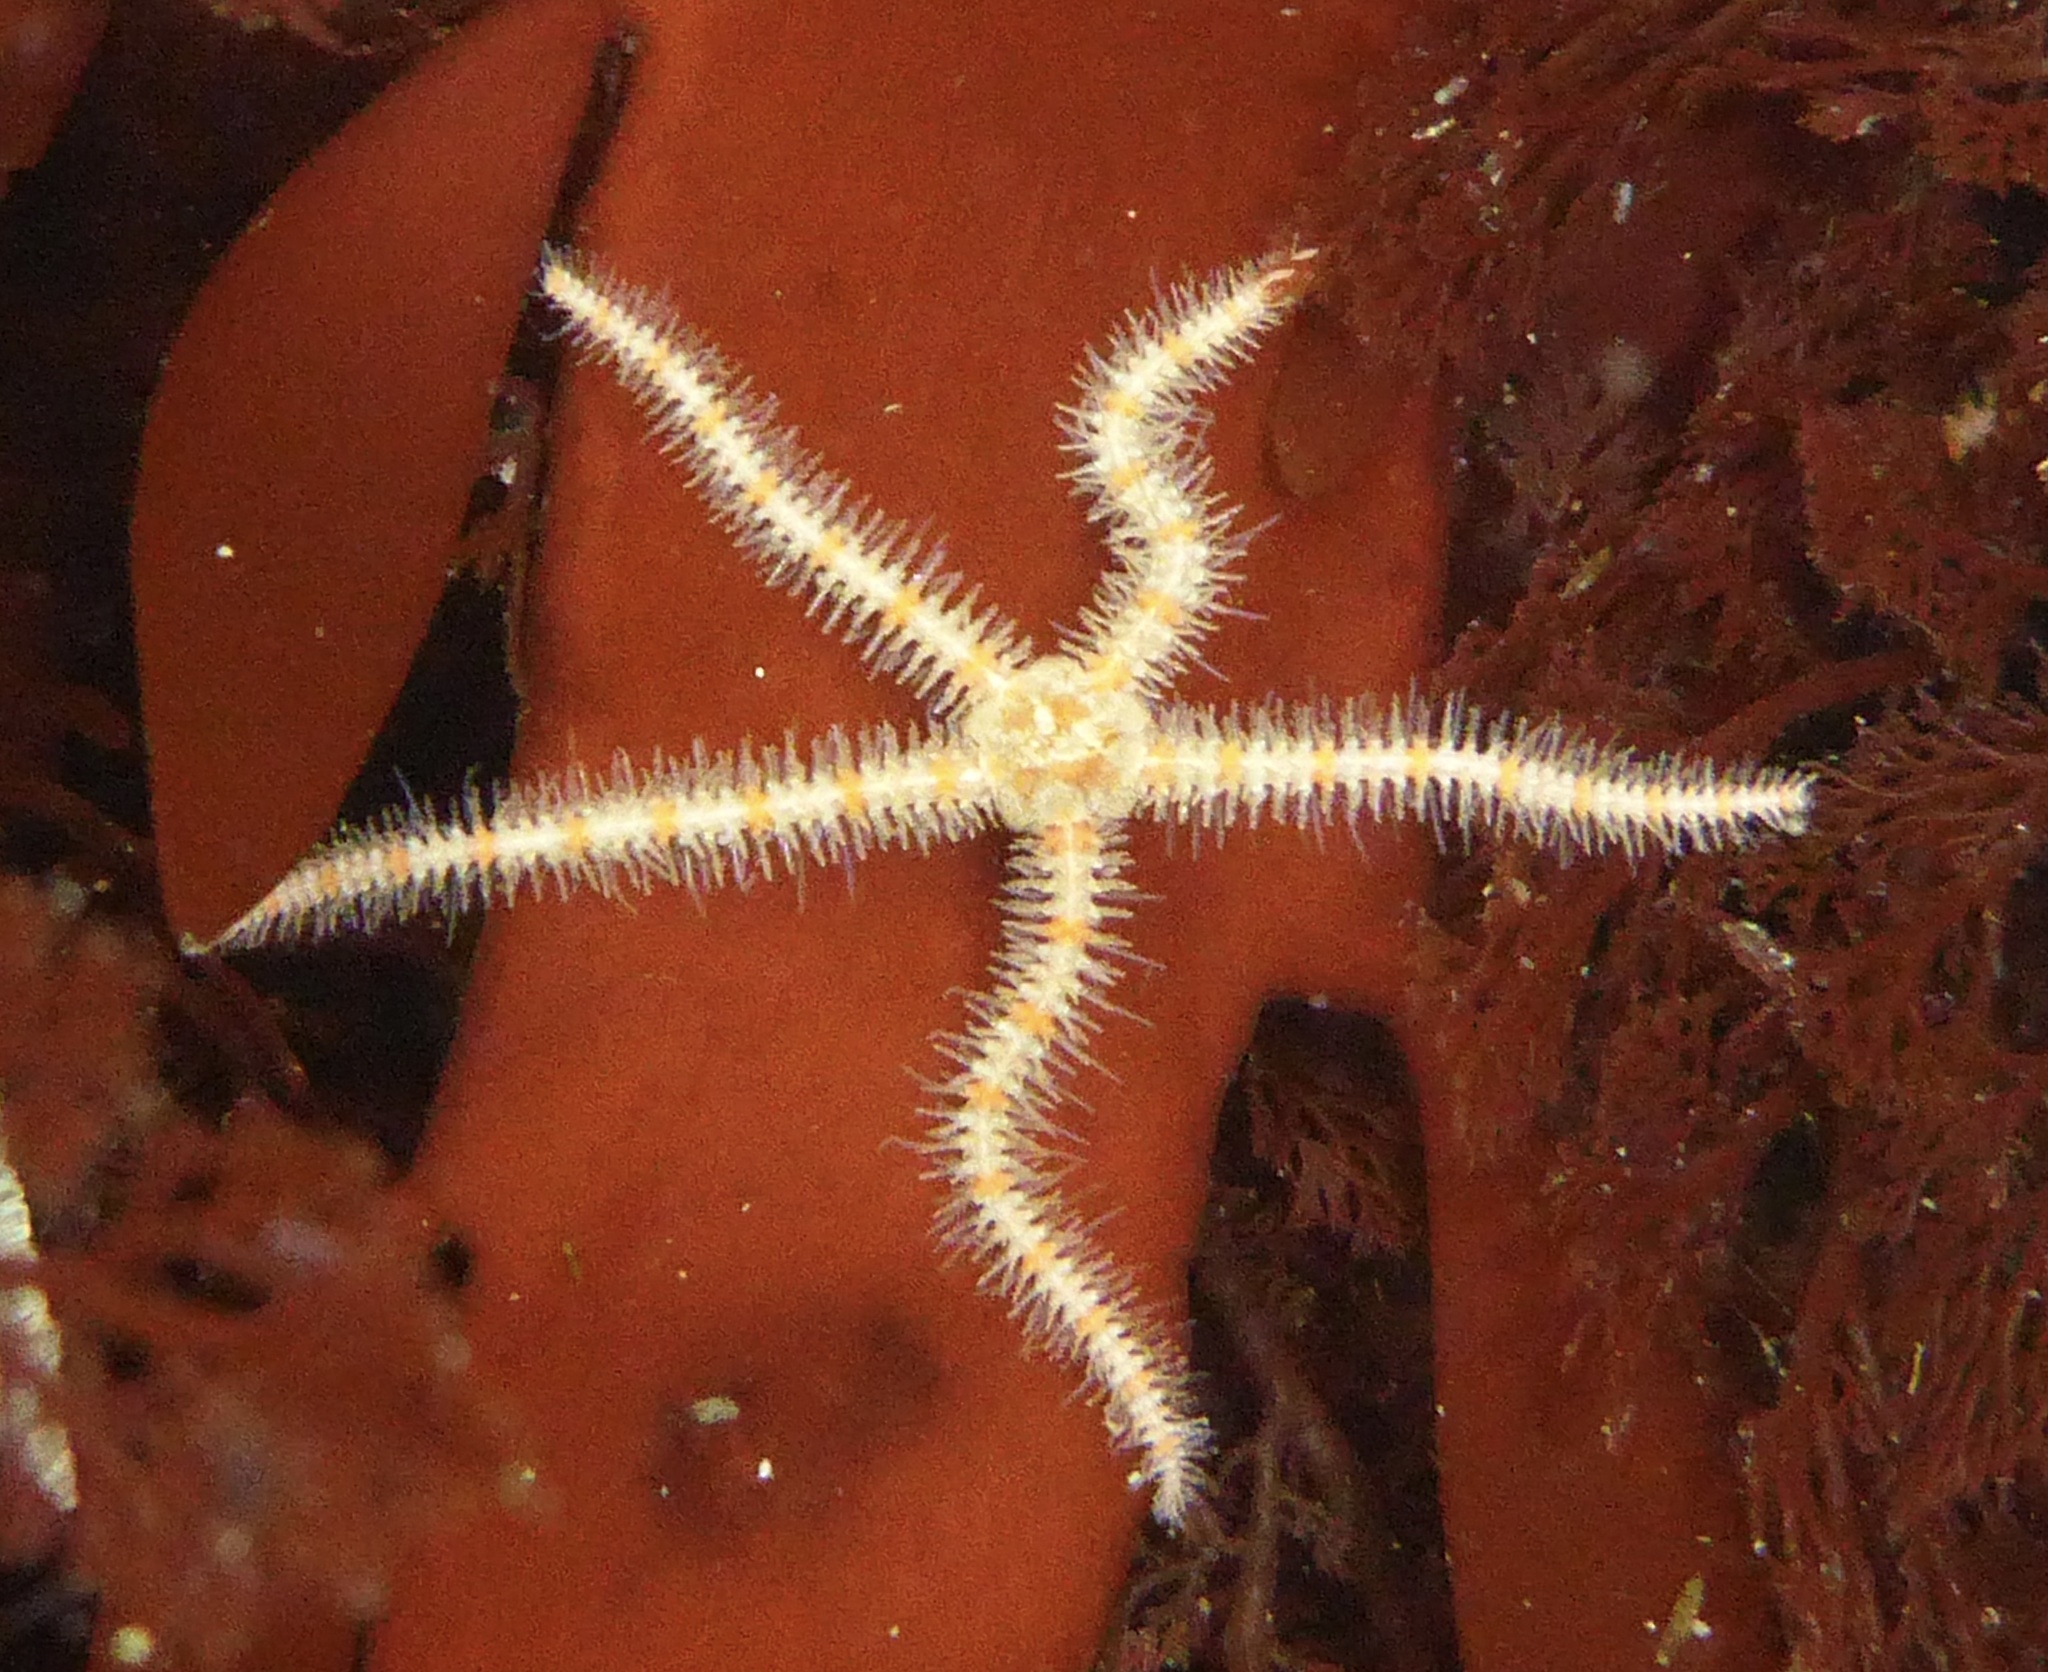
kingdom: Animalia
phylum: Echinodermata
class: Ophiuroidea
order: Amphilepidida
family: Ophiotrichidae
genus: Ophiothrix
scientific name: Ophiothrix spiculata
